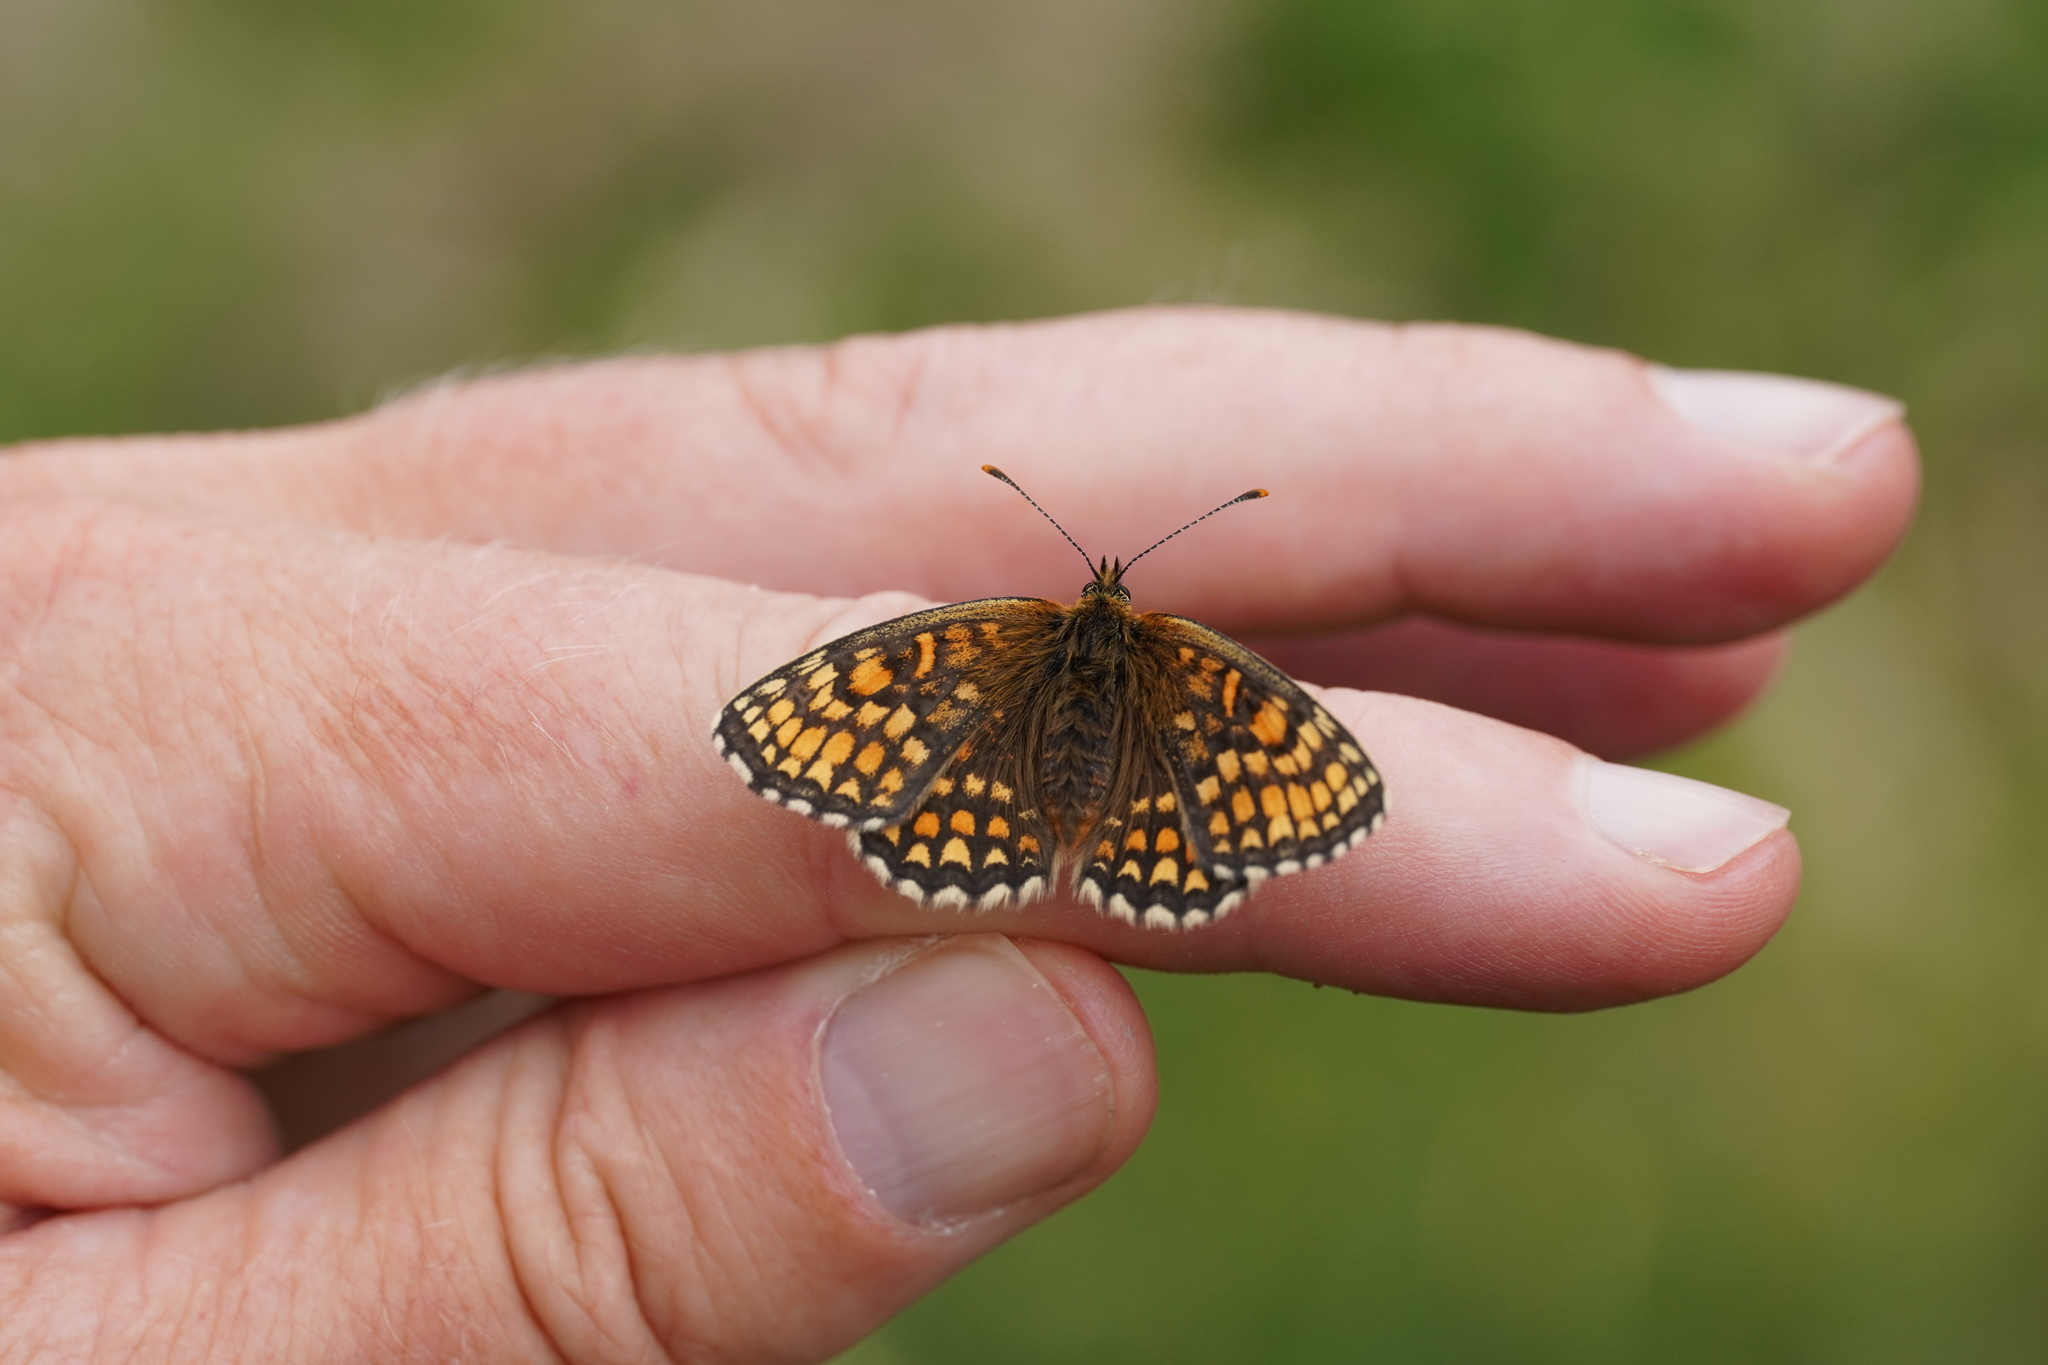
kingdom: Animalia
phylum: Arthropoda
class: Insecta
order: Lepidoptera
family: Nymphalidae
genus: Melitaea
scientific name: Melitaea athalia
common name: Heath fritillary
